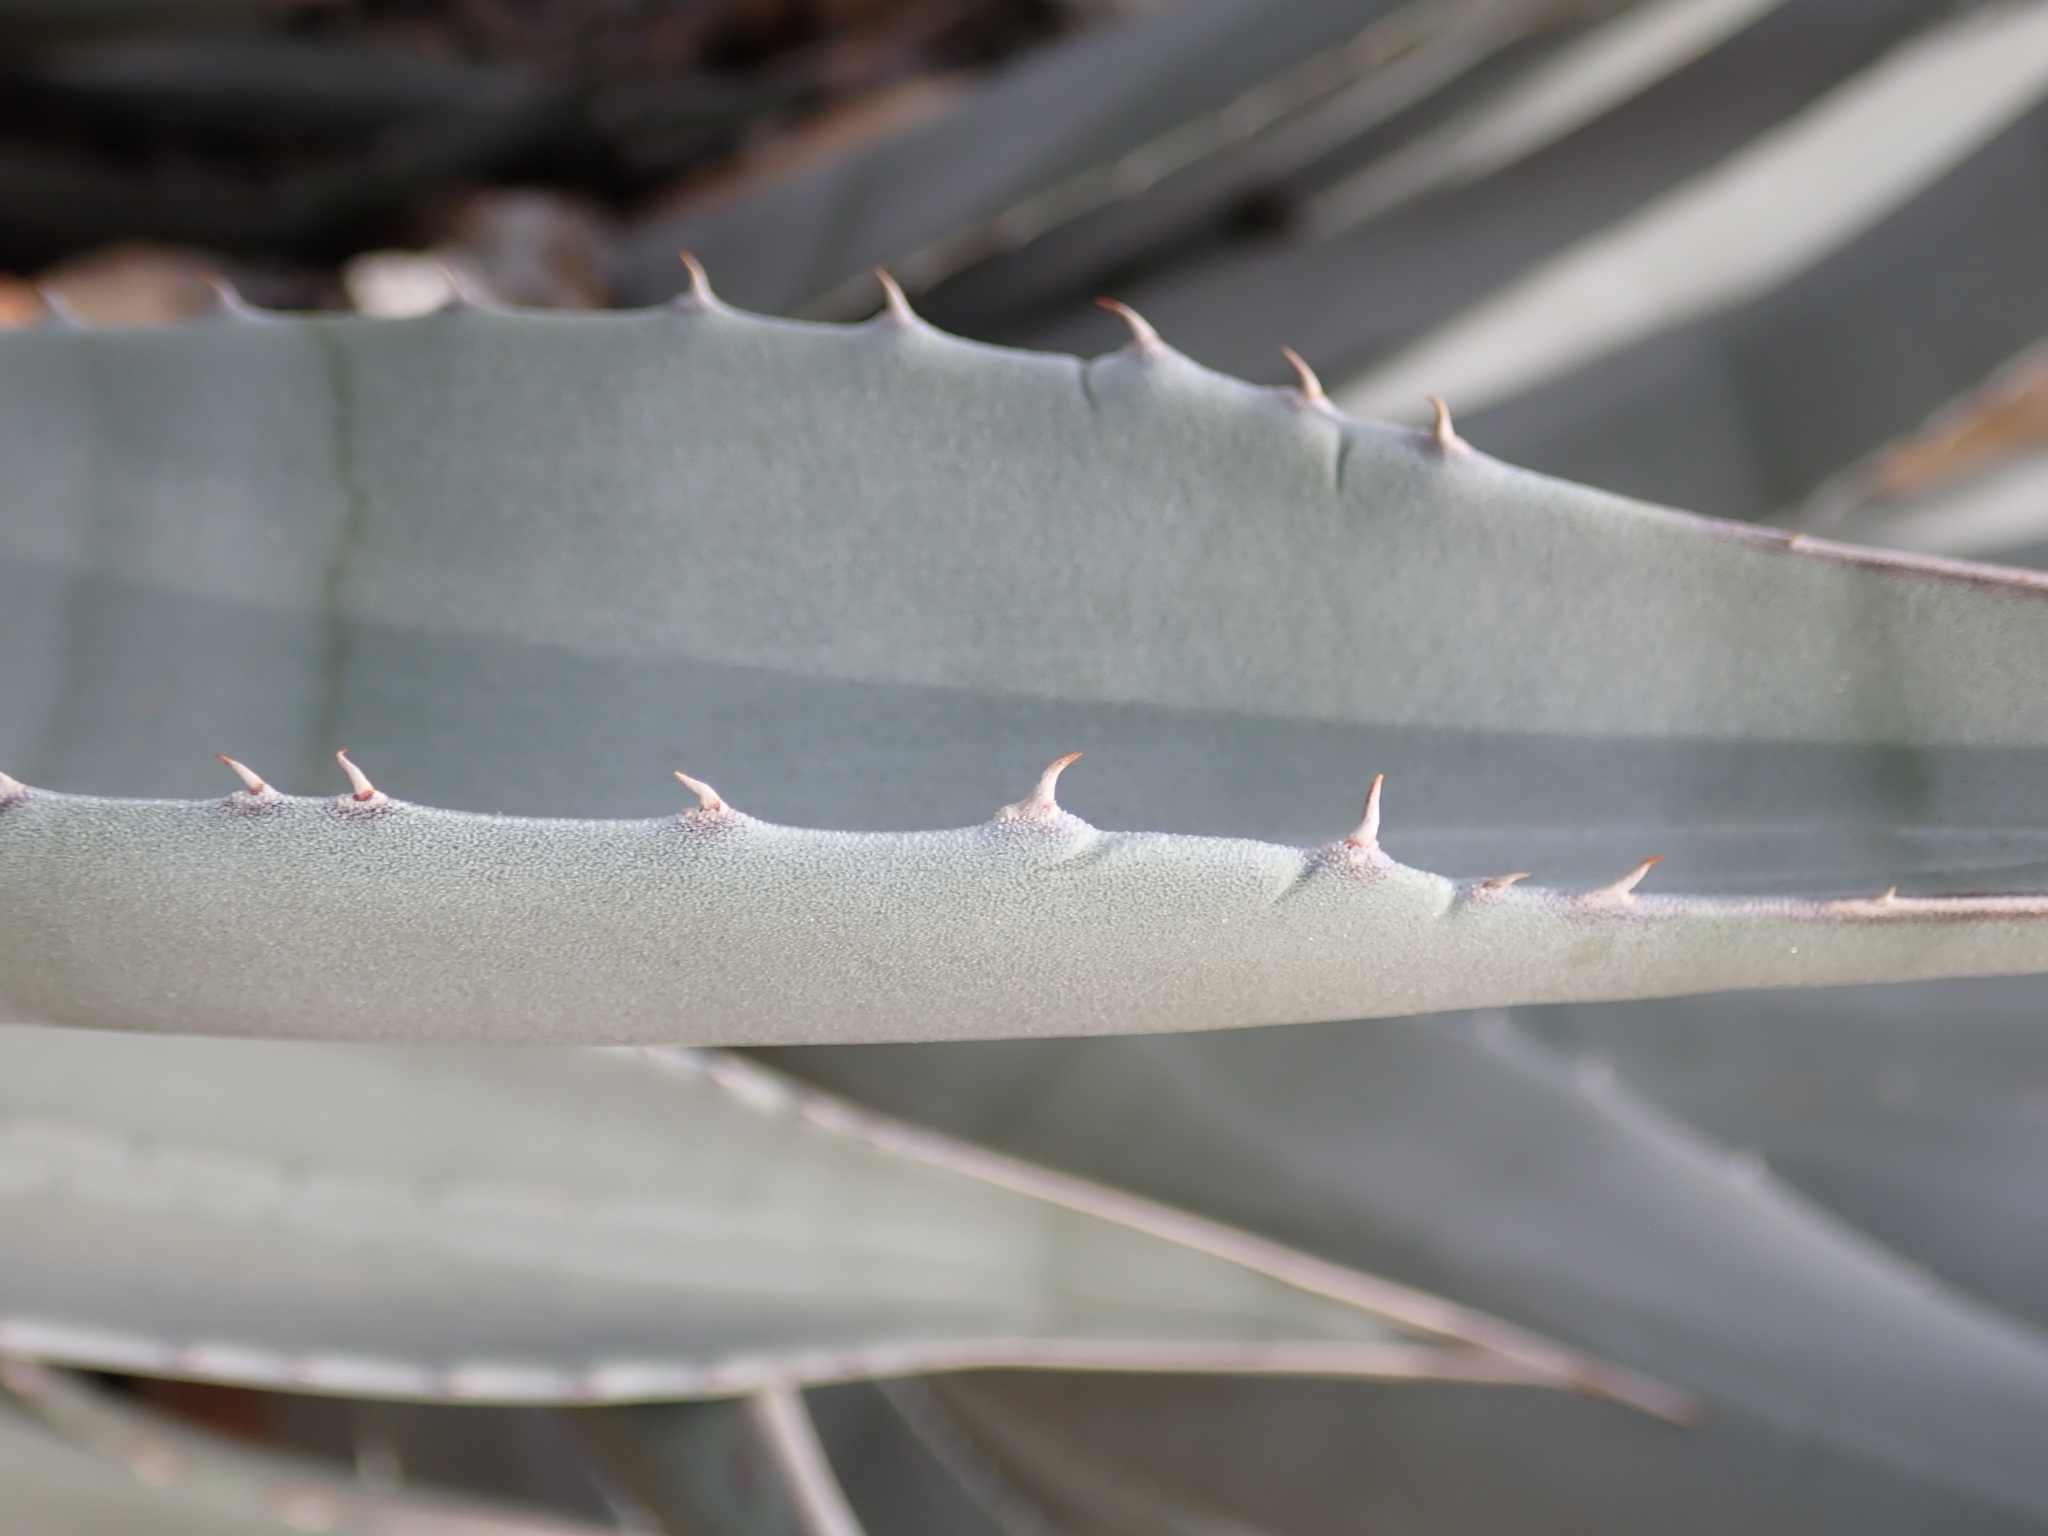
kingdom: Plantae
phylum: Tracheophyta
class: Liliopsida
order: Asparagales
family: Asparagaceae
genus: Agave
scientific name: Agave deserti
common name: Desert agave
